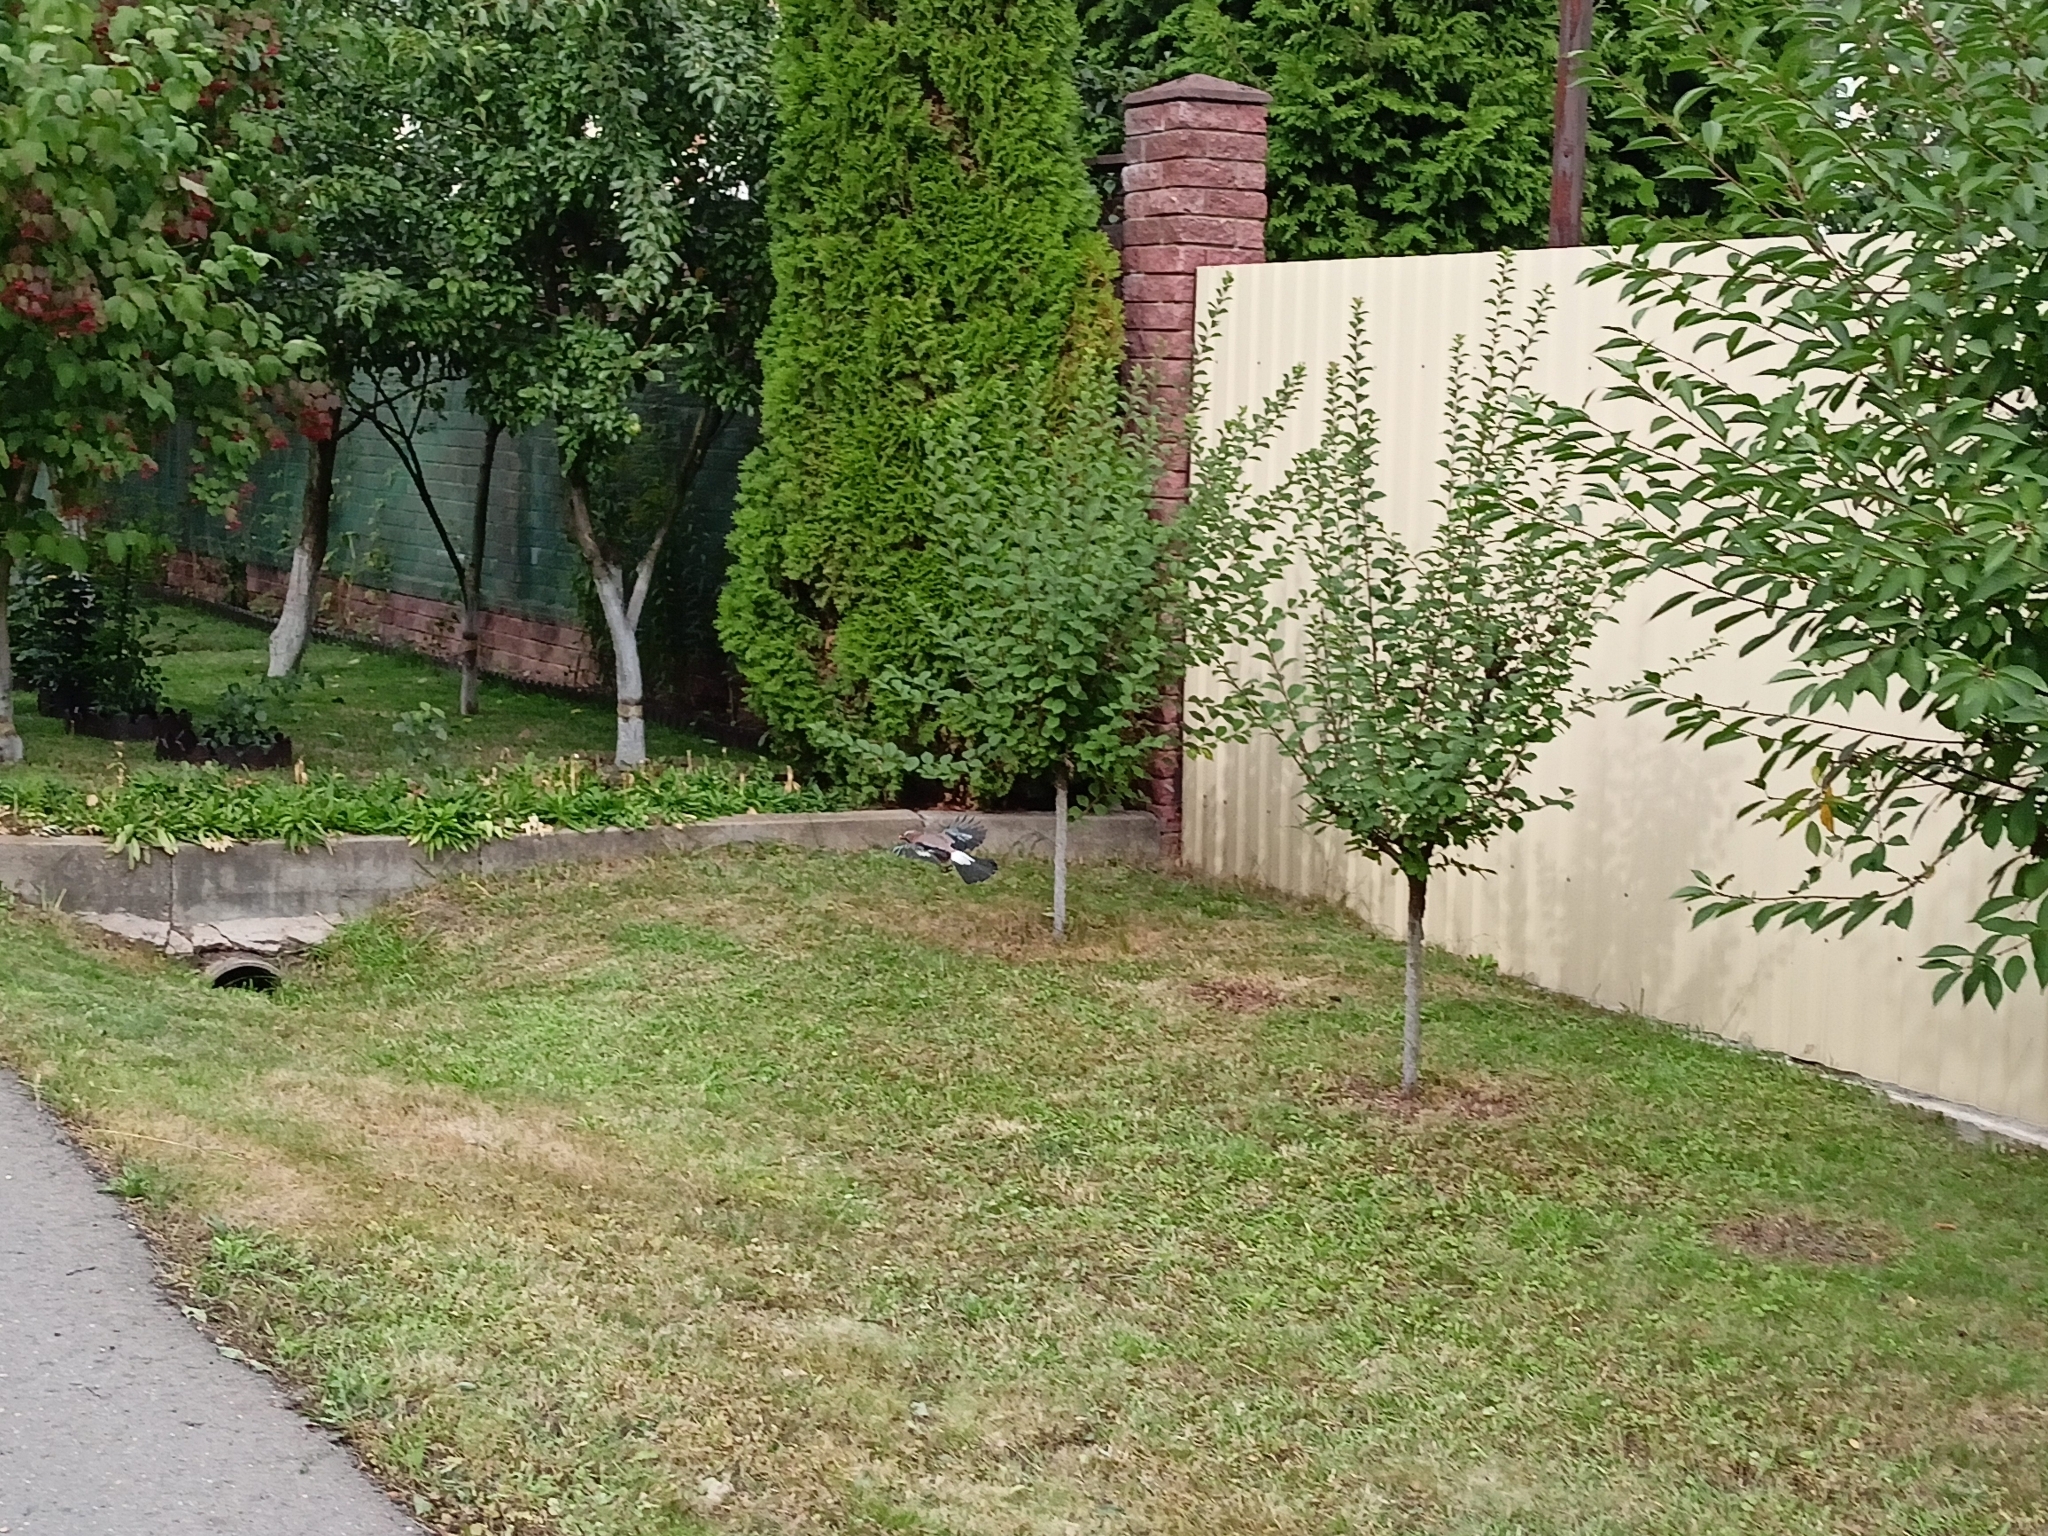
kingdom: Animalia
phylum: Chordata
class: Aves
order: Passeriformes
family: Corvidae
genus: Garrulus
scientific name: Garrulus glandarius
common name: Eurasian jay
